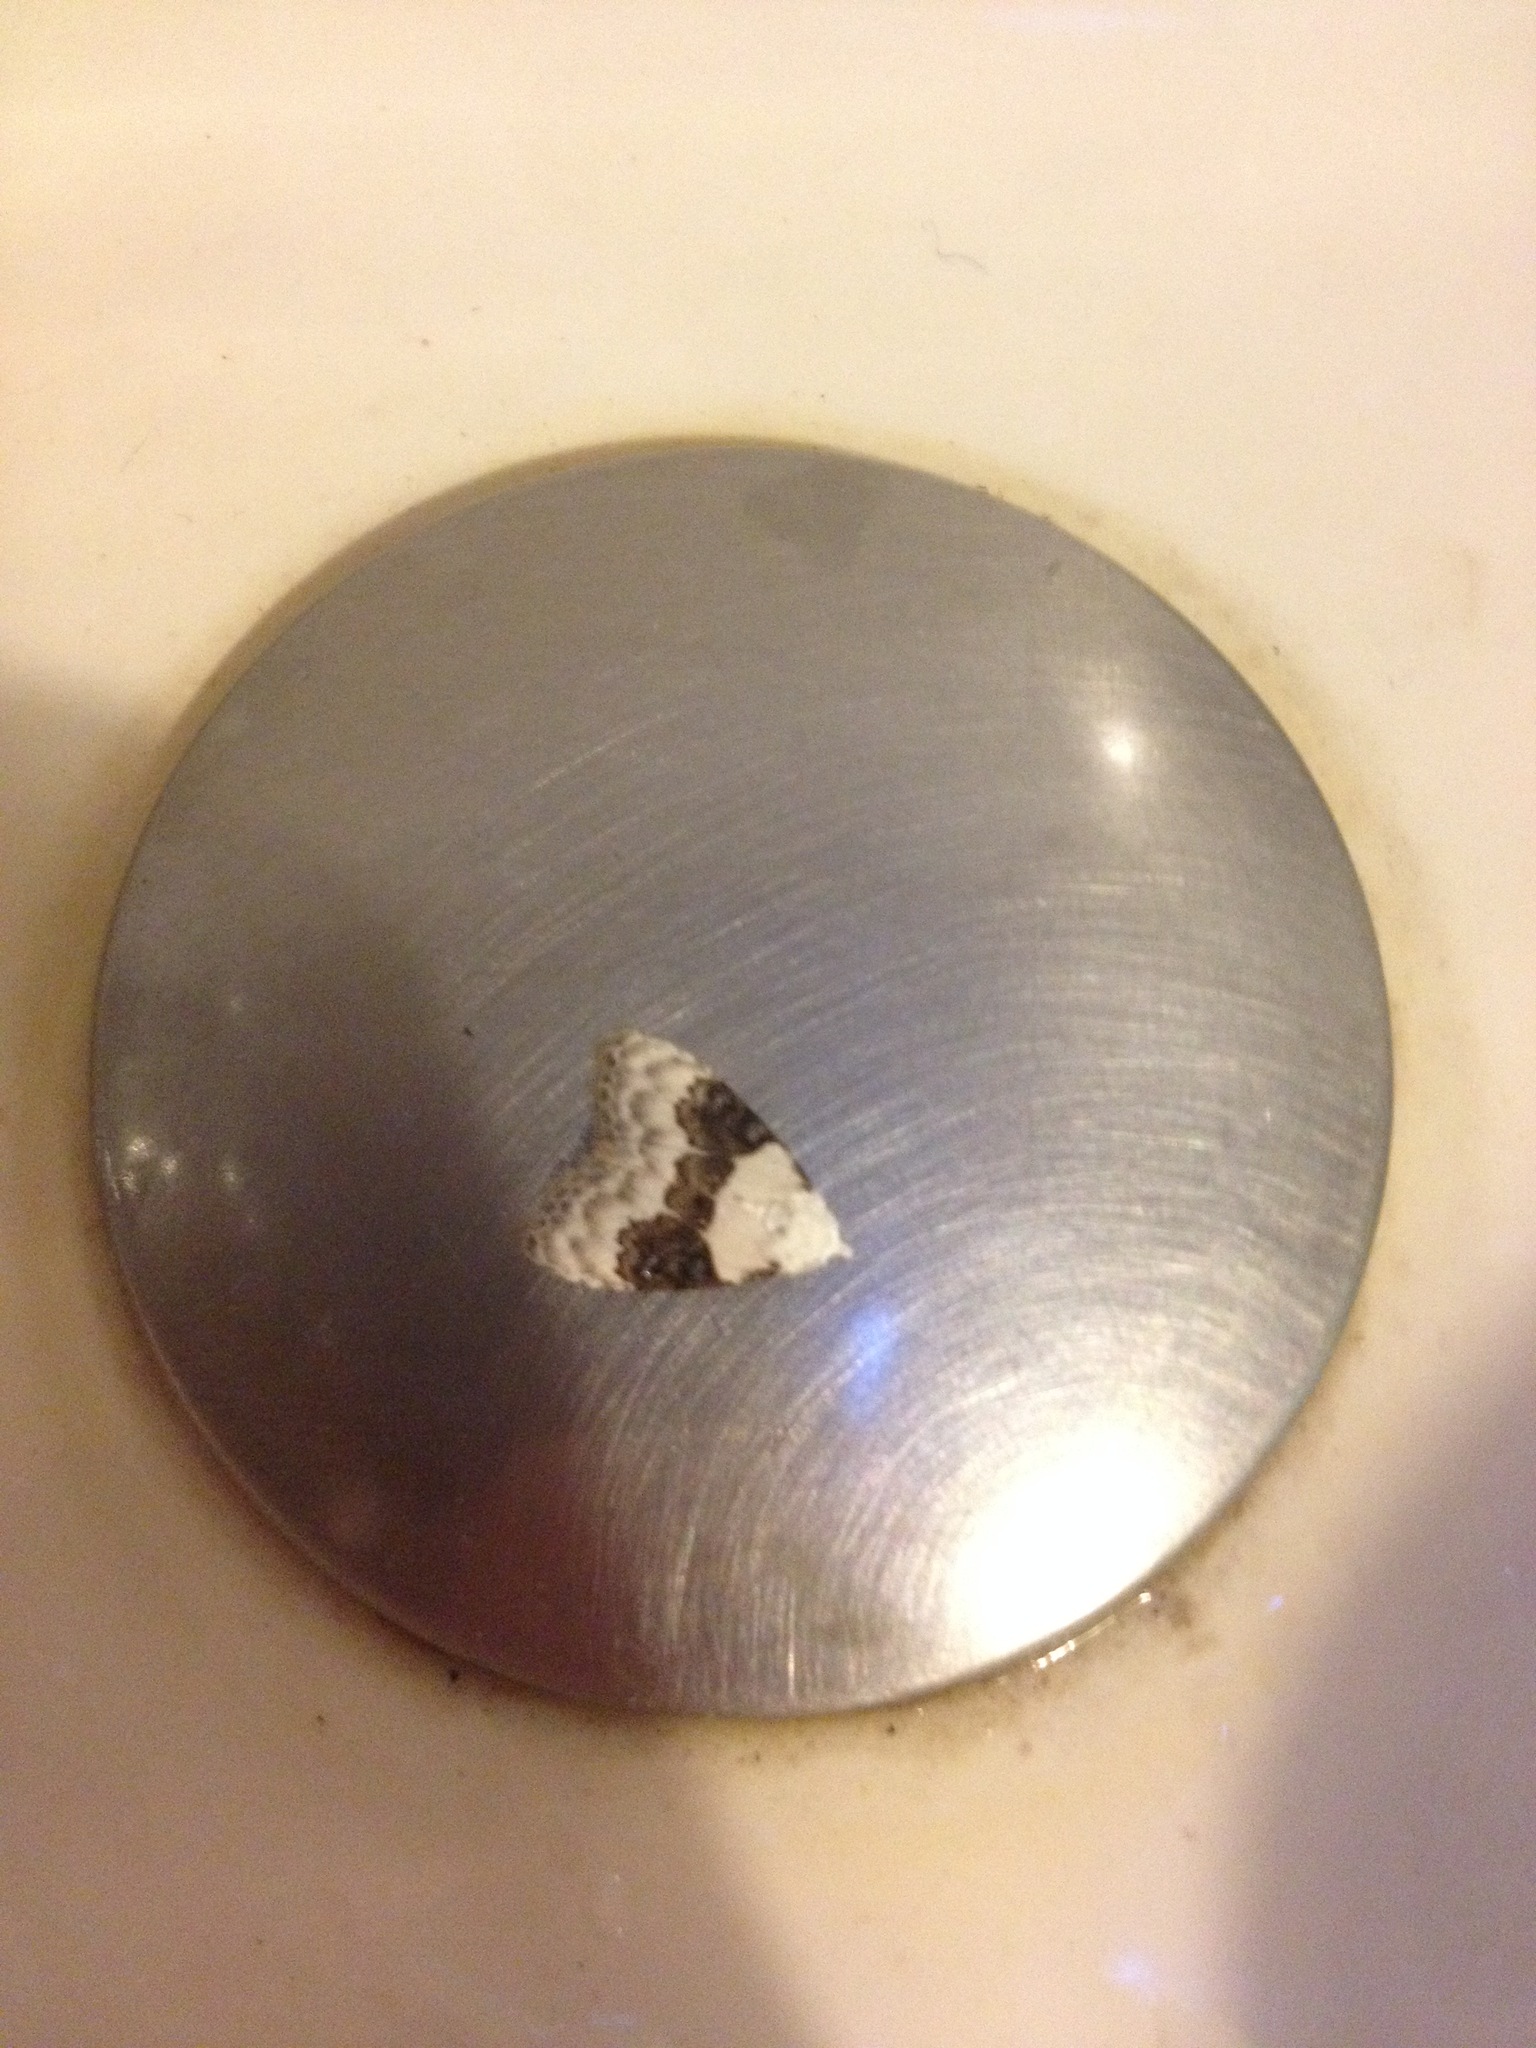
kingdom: Animalia
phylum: Arthropoda
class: Insecta
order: Lepidoptera
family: Nolidae
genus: Nola
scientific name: Nola pustulata
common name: Sharp-blotched nola moth
